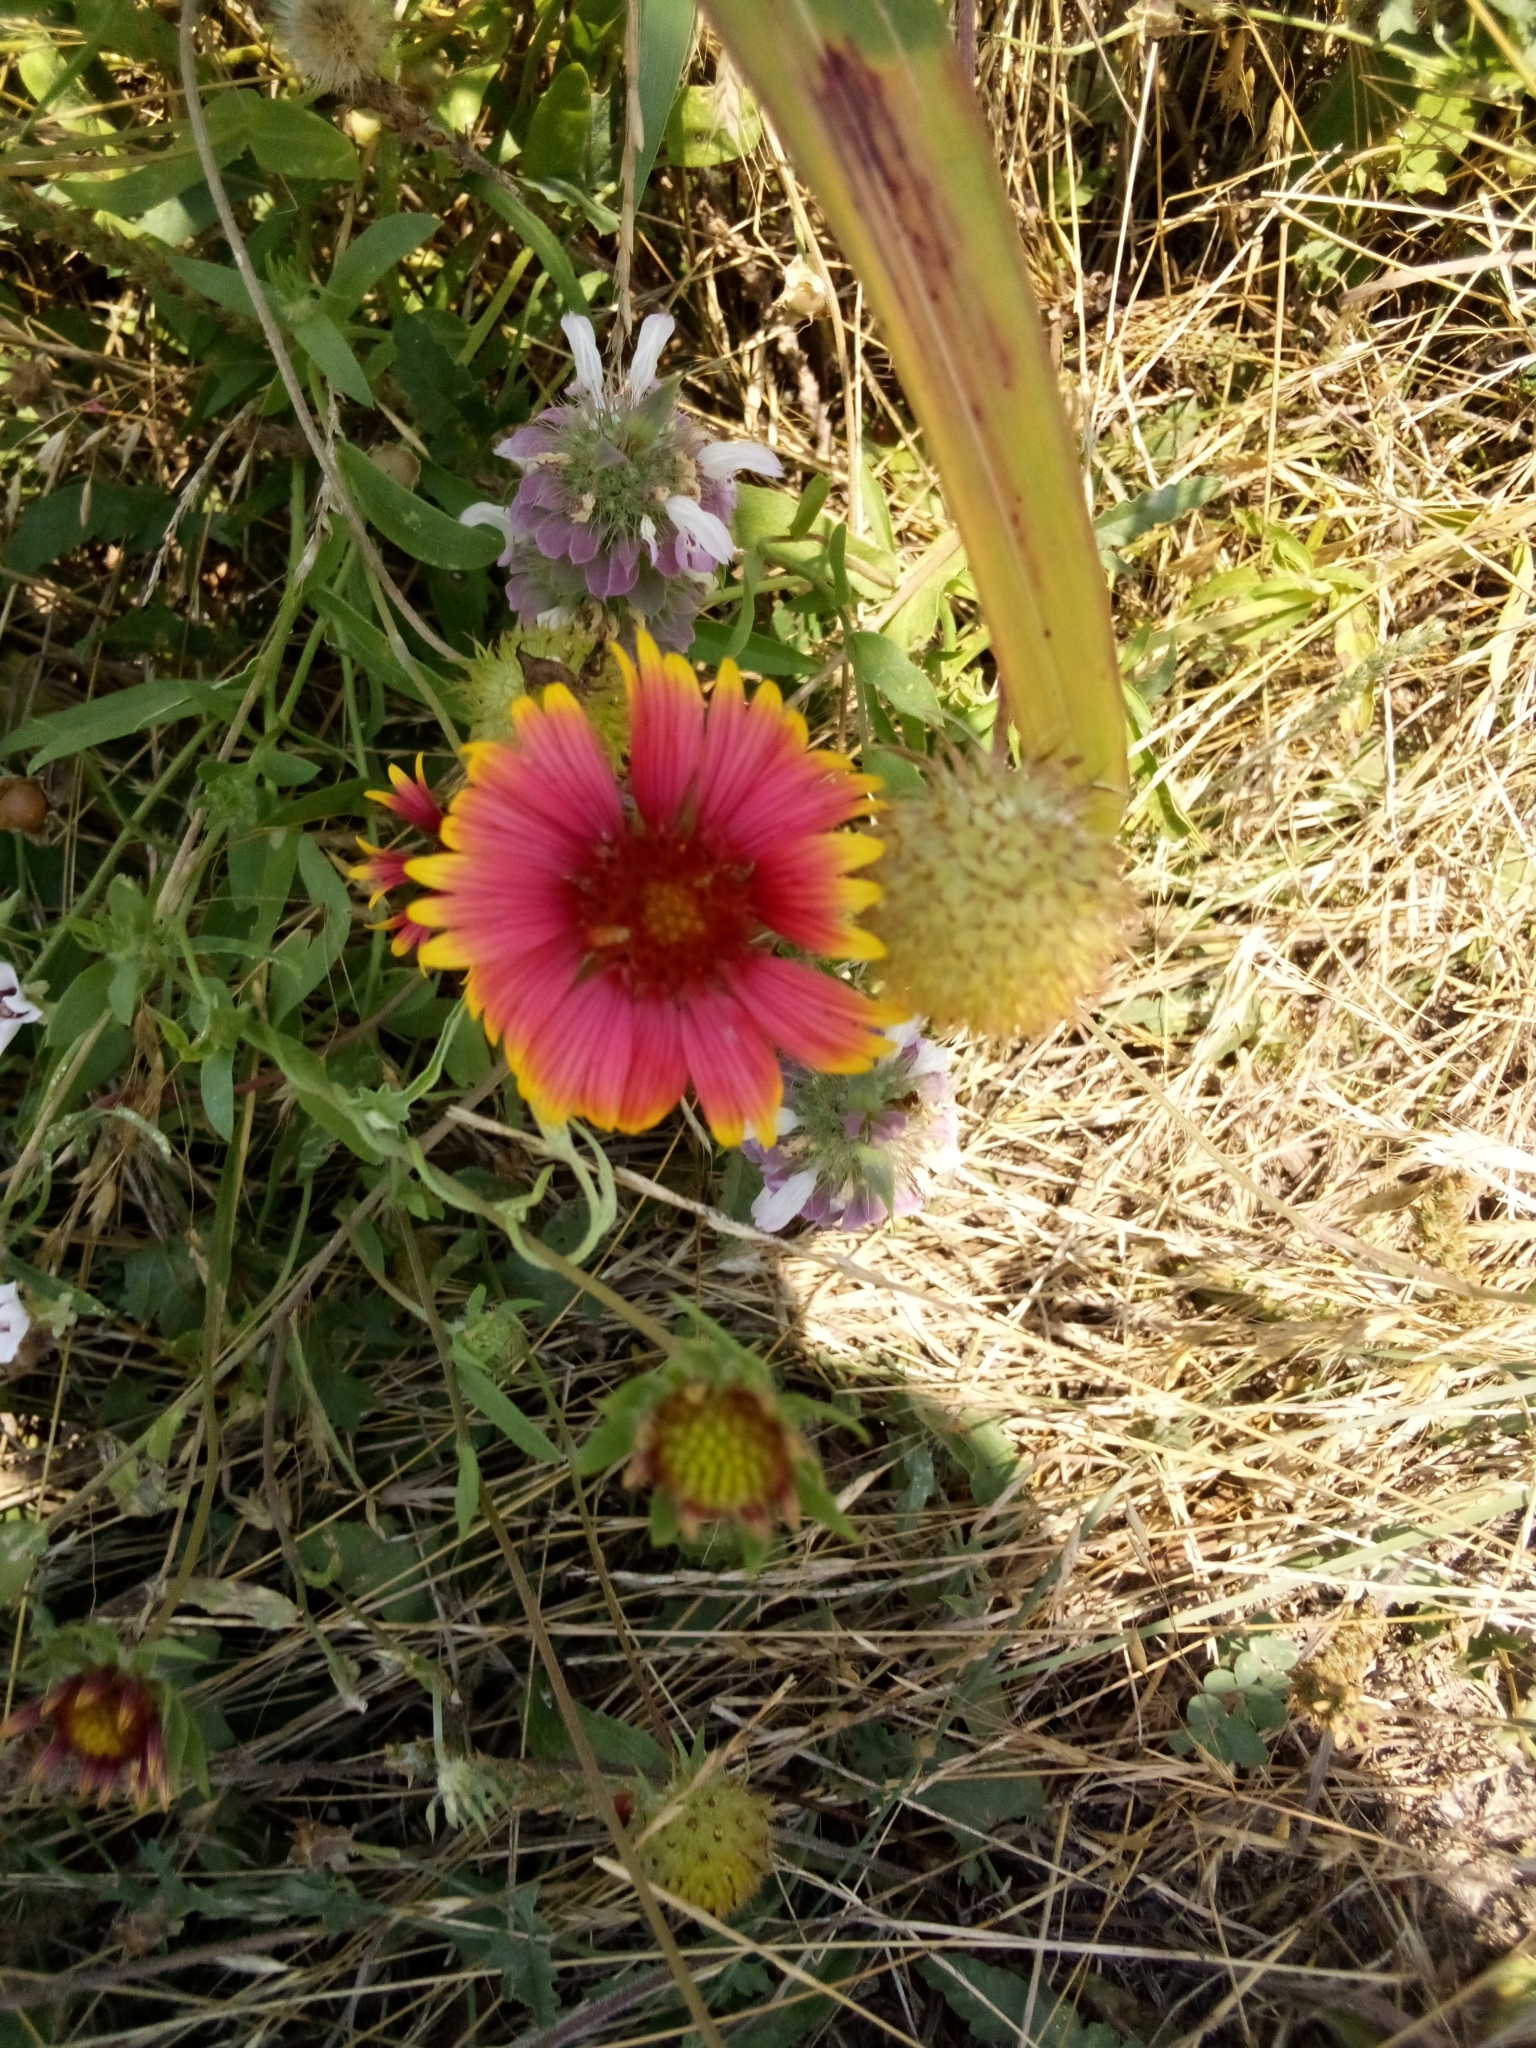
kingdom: Plantae
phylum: Tracheophyta
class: Magnoliopsida
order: Asterales
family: Asteraceae
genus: Gaillardia
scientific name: Gaillardia pulchella
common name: Firewheel
